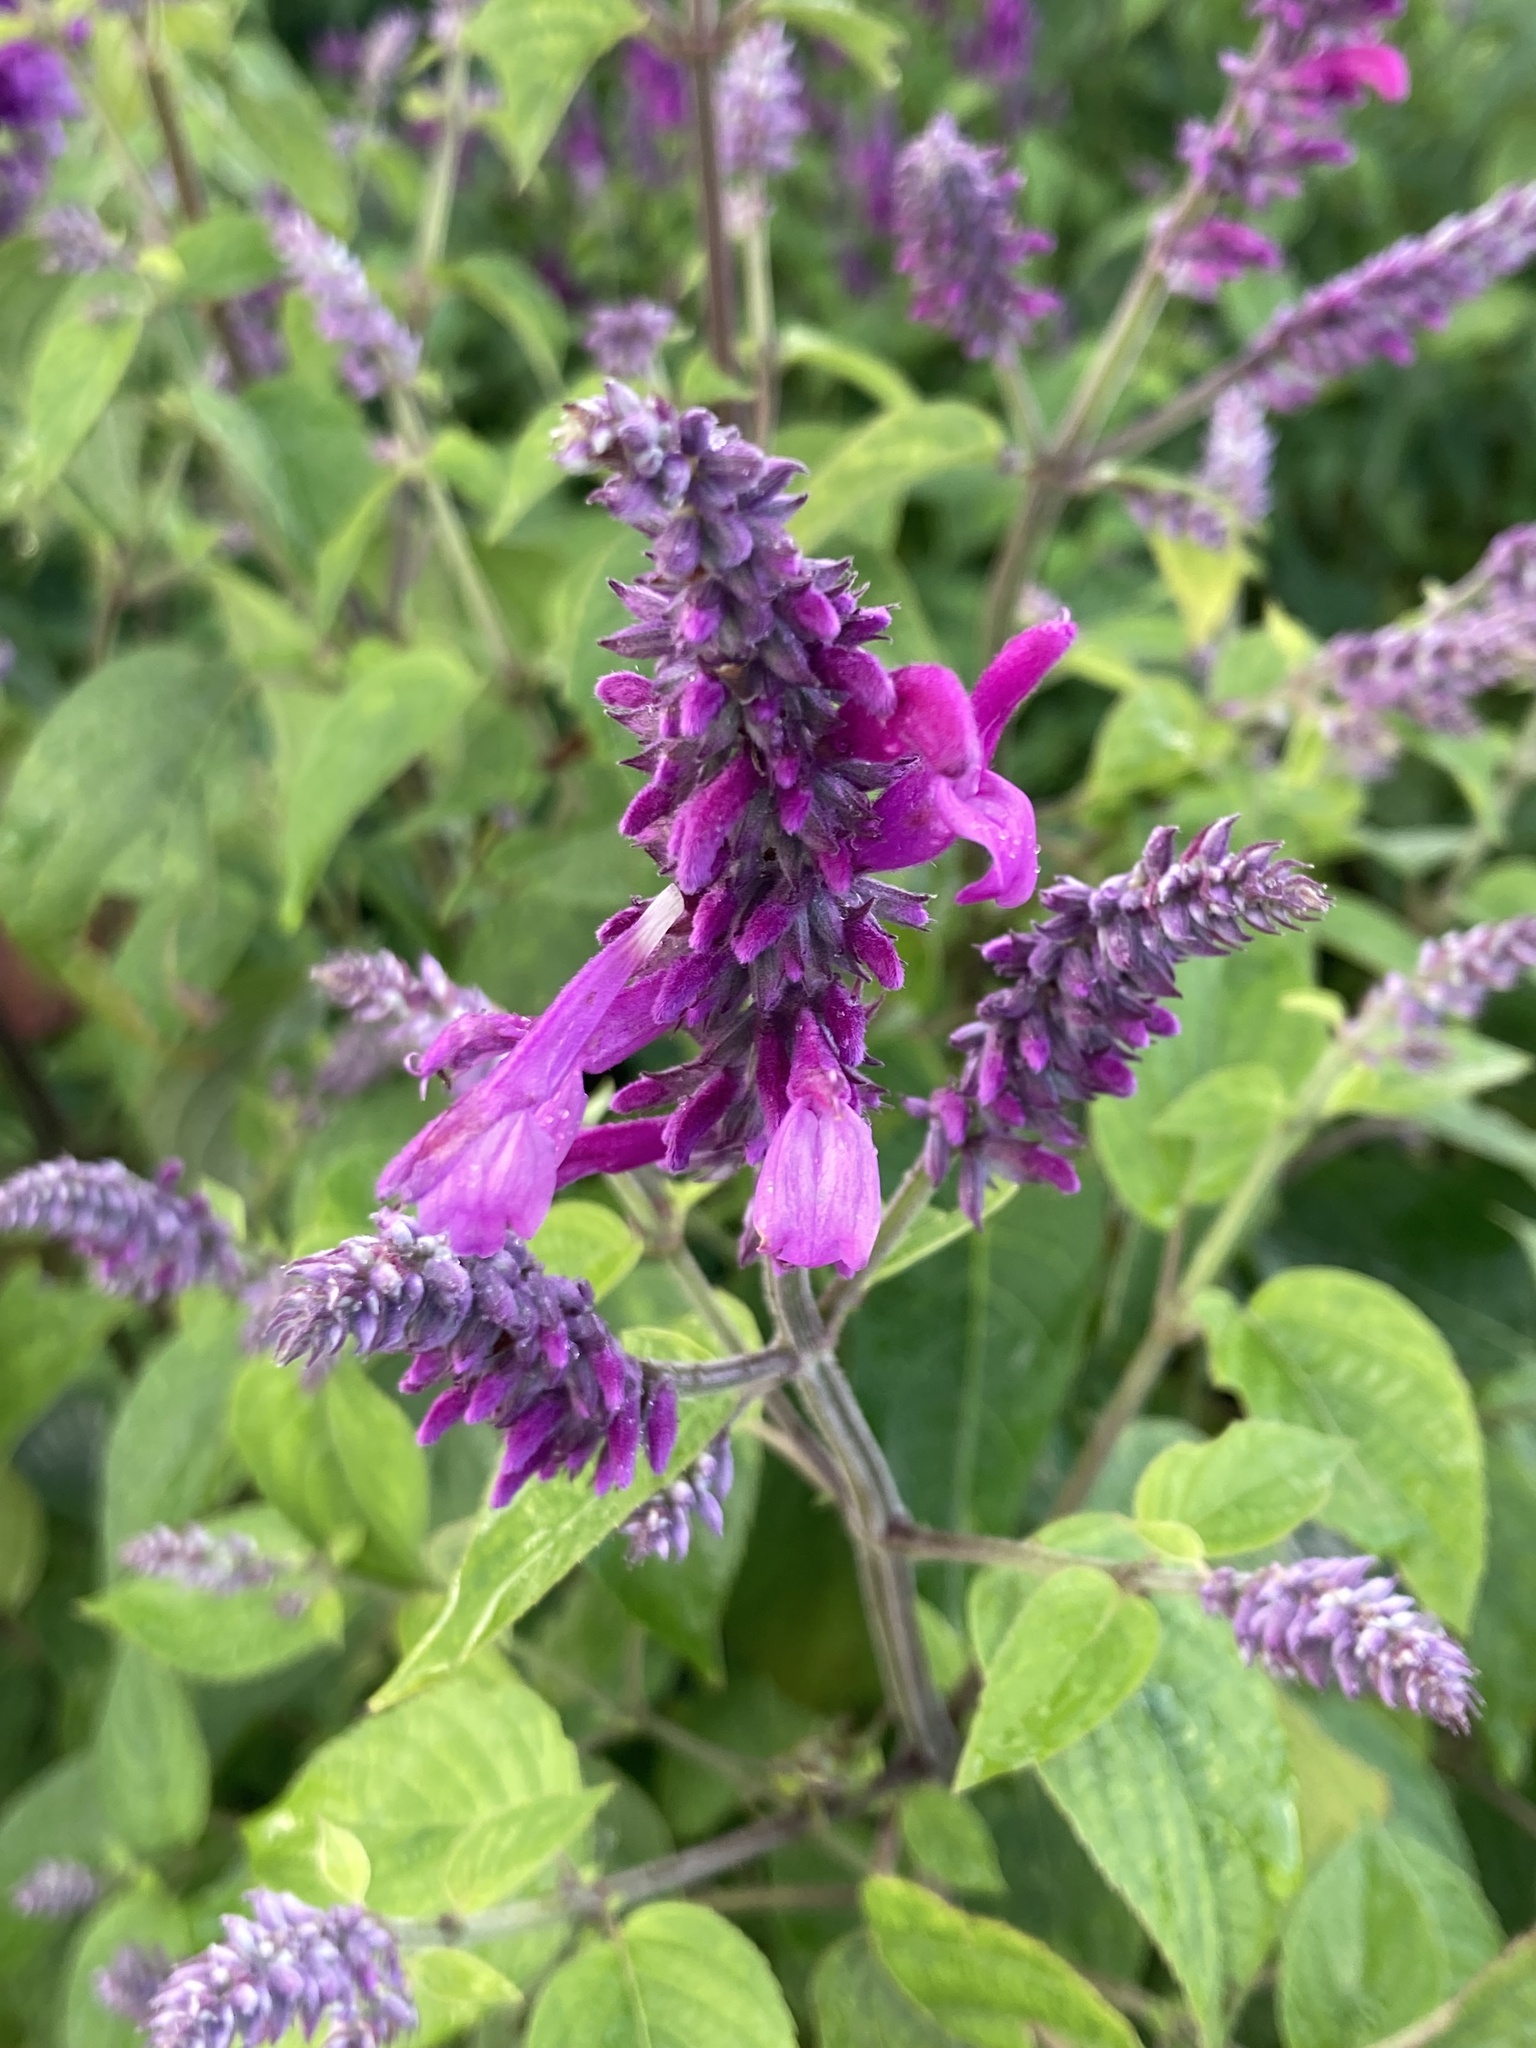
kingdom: Plantae
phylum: Tracheophyta
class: Magnoliopsida
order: Lamiales
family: Lamiaceae
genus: Salvia
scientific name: Salvia purpurea
